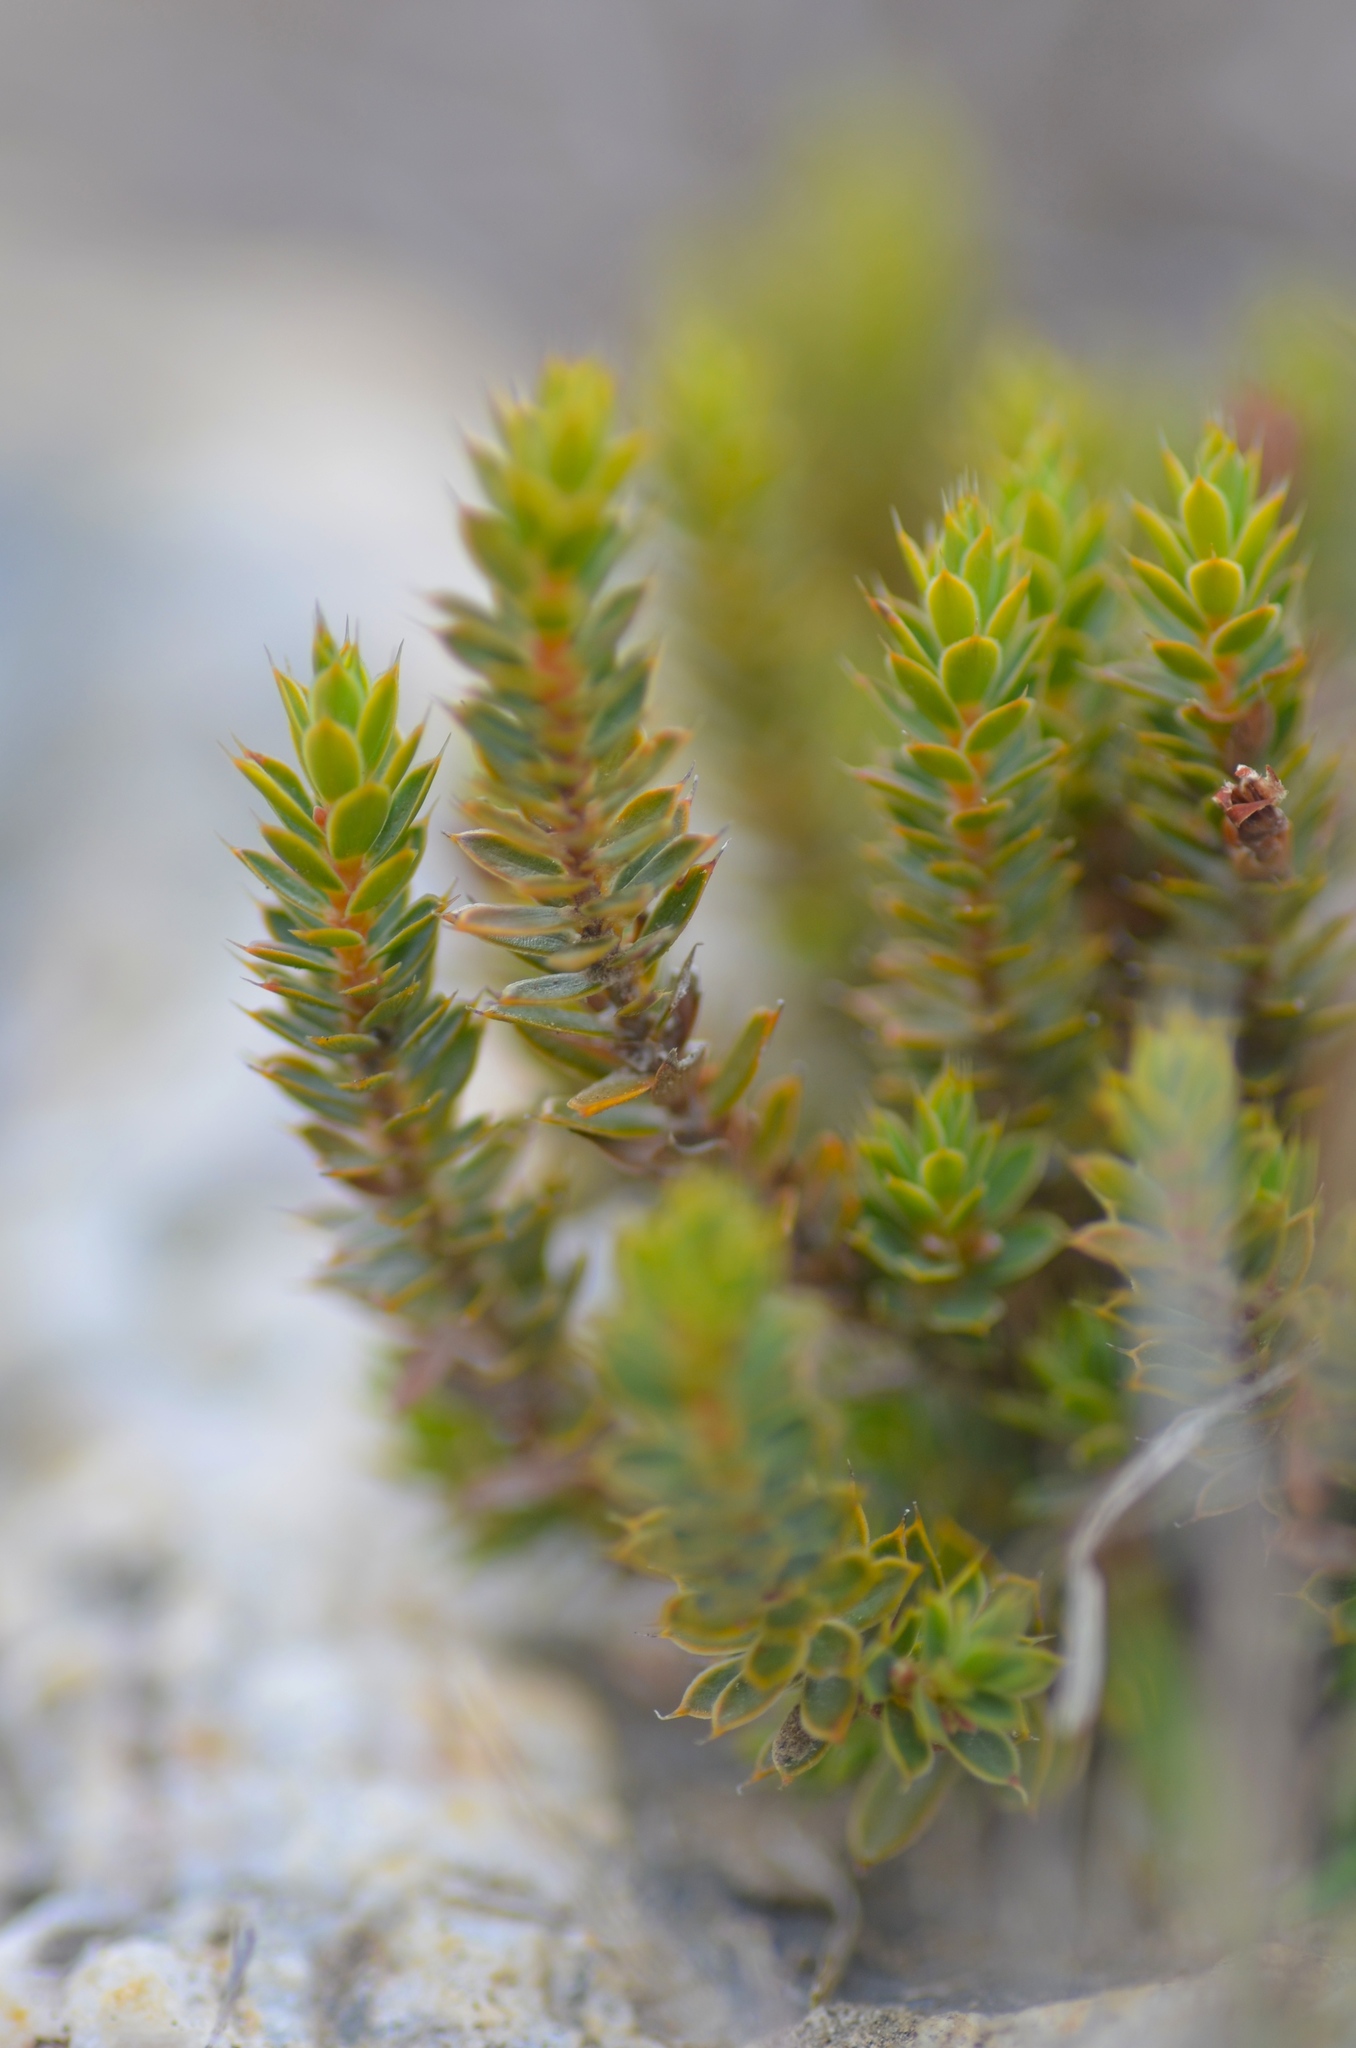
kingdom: Plantae
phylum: Tracheophyta
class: Magnoliopsida
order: Ericales
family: Ericaceae
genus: Styphelia
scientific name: Styphelia nesophila
